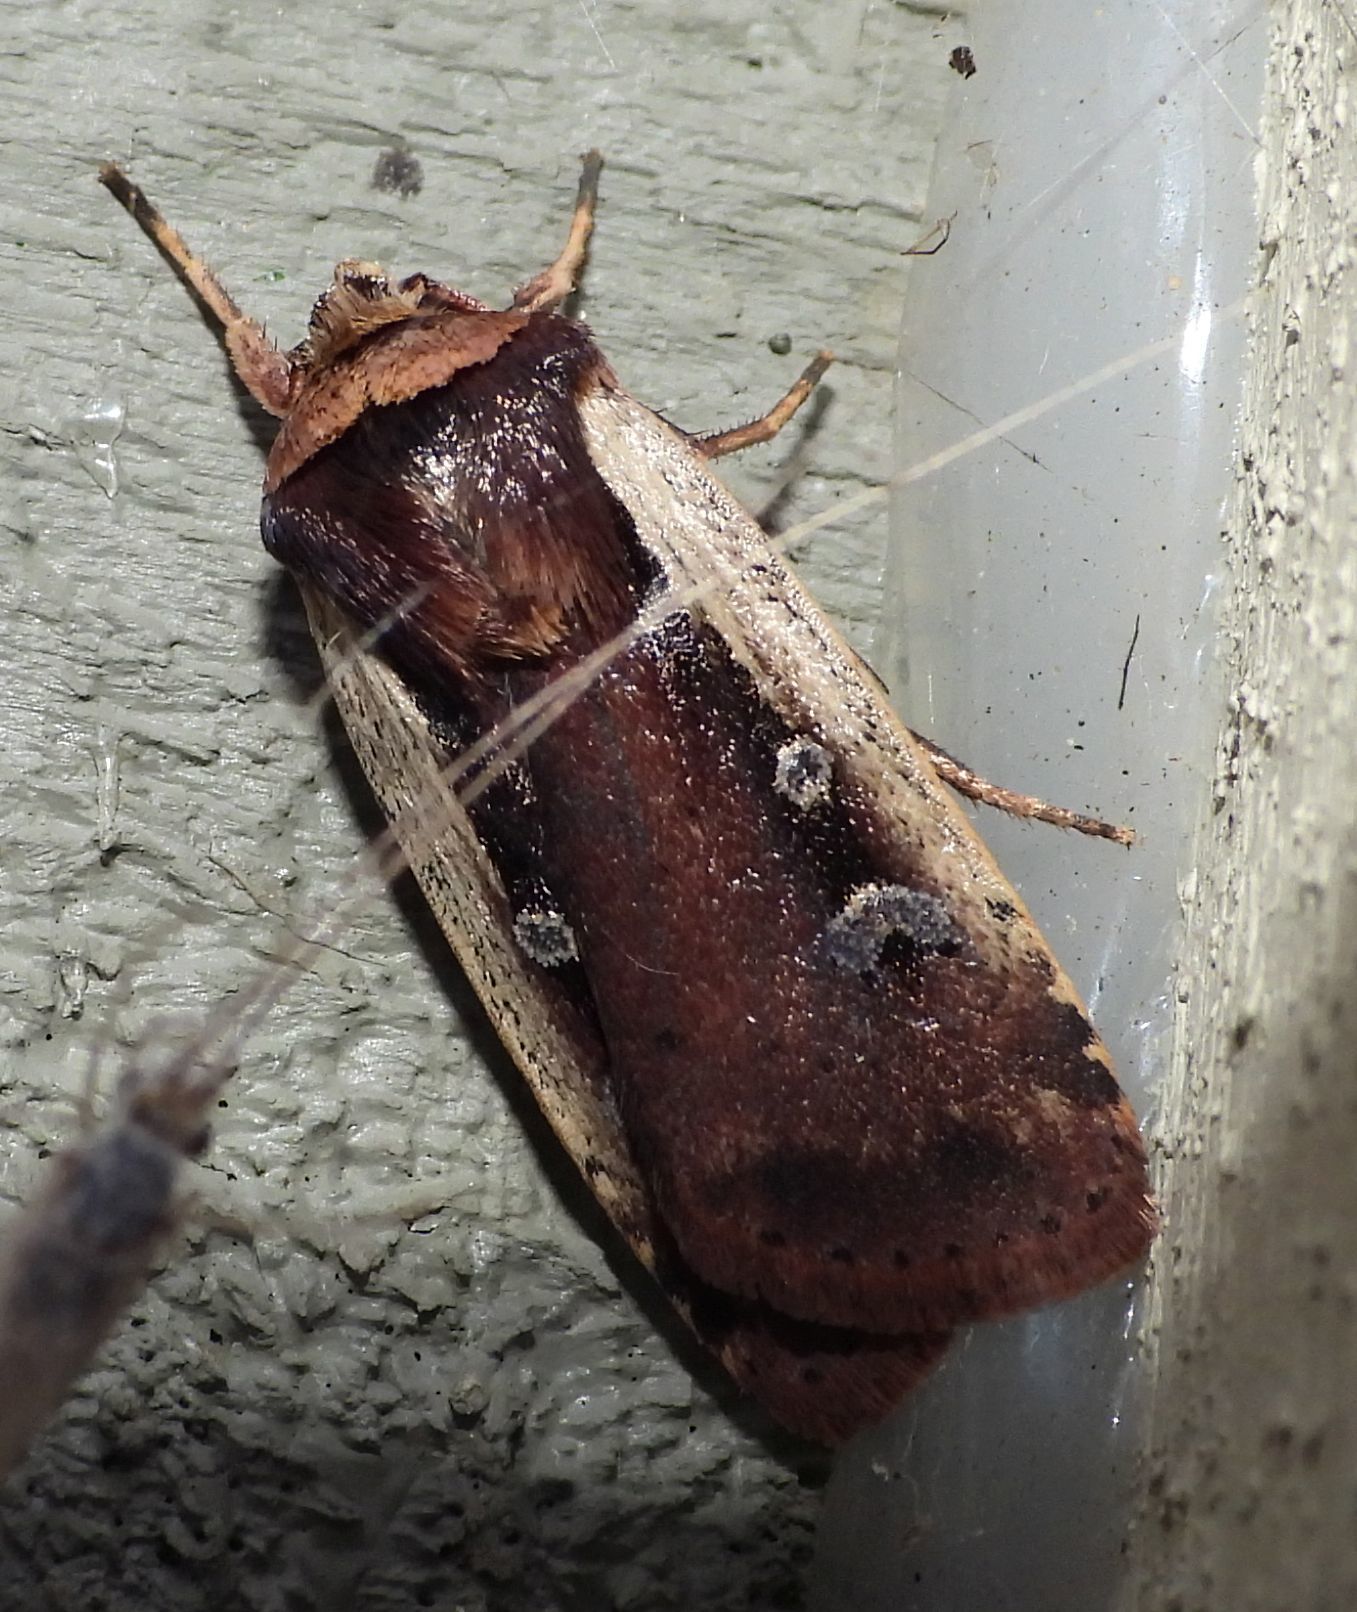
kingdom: Animalia
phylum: Arthropoda
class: Insecta
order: Lepidoptera
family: Noctuidae
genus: Ochropleura
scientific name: Ochropleura implecta
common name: Flame-shouldered dart
